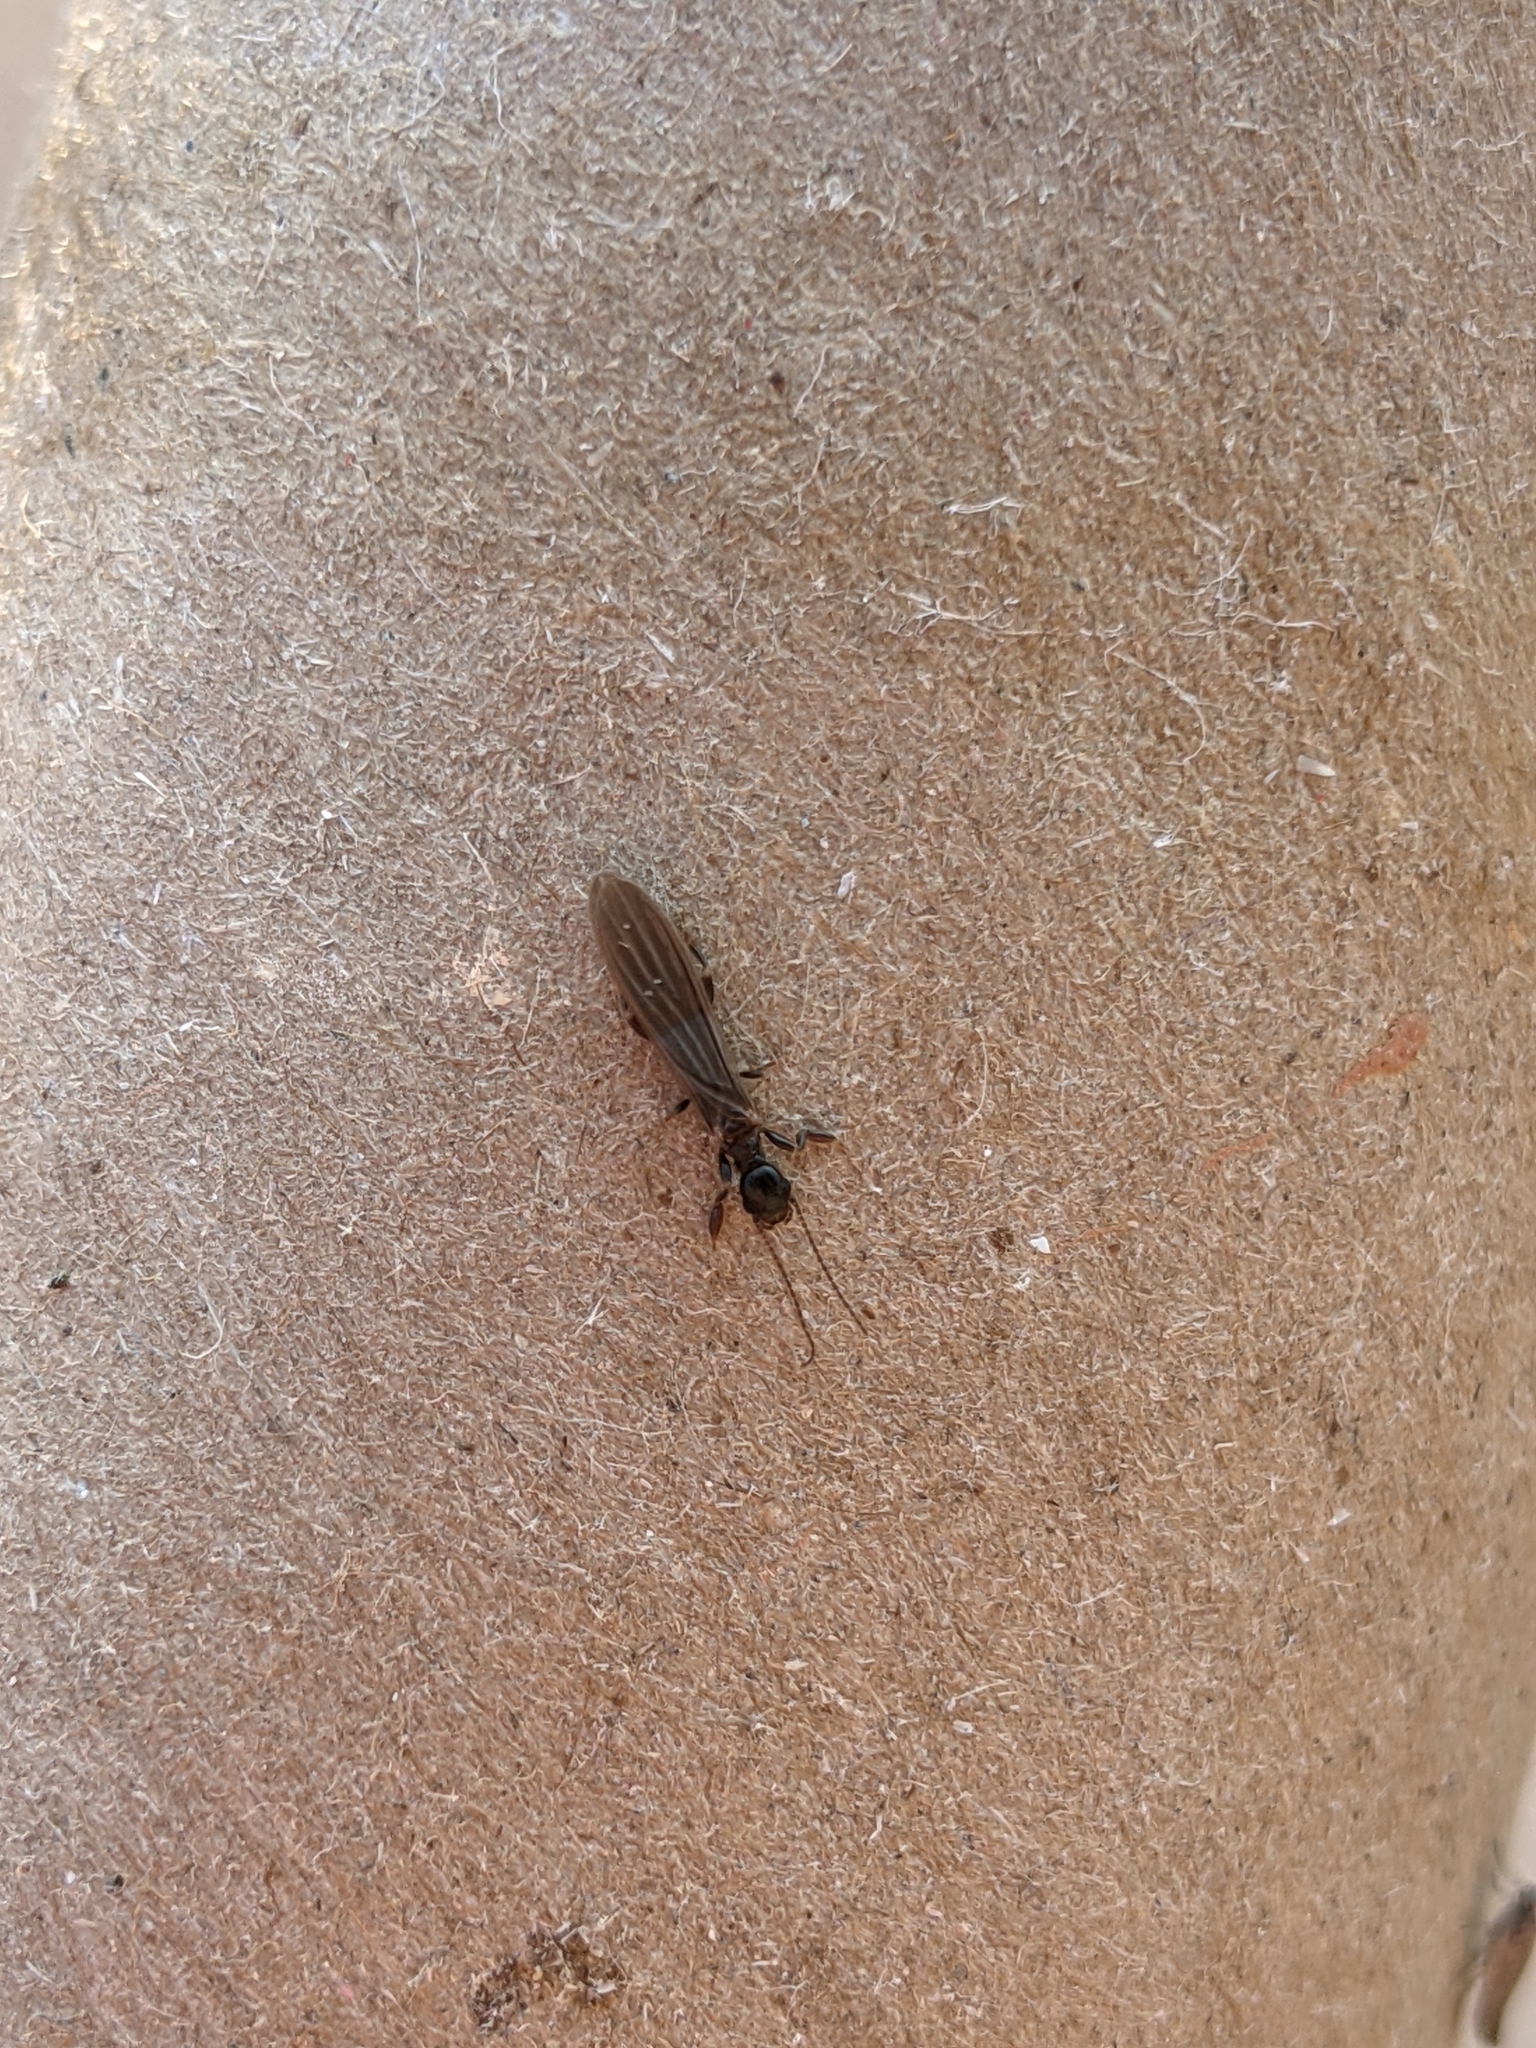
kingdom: Animalia
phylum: Arthropoda
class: Insecta
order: Embioptera
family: Oligotomidae
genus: Oligotoma
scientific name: Oligotoma nigra
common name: Black webspinner
